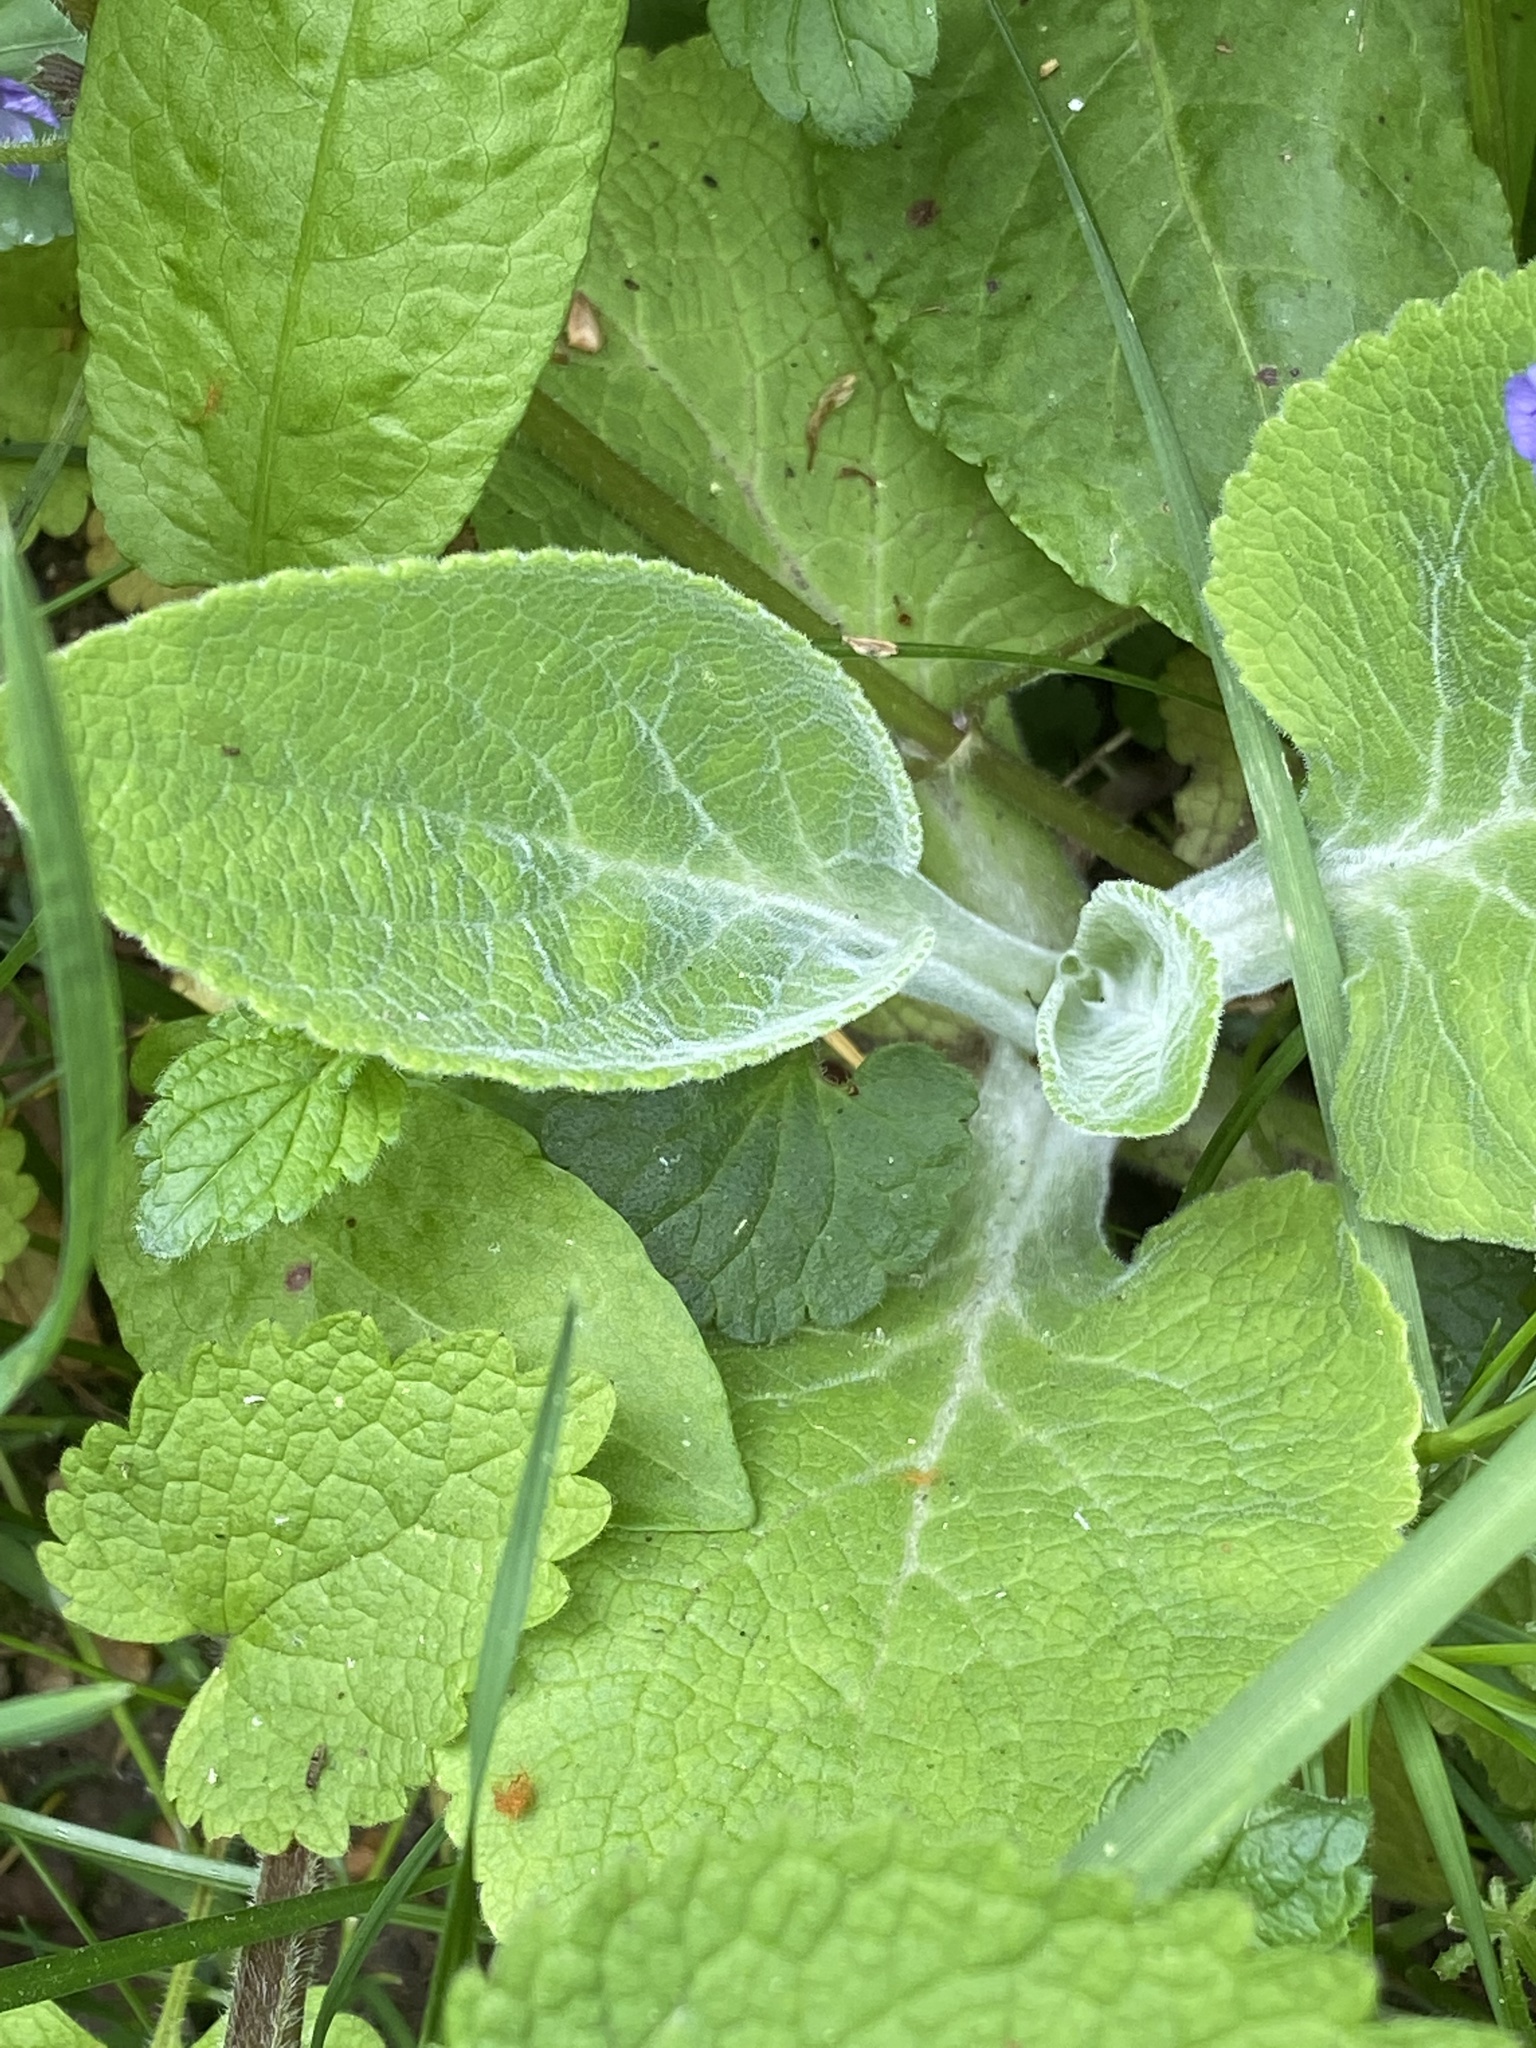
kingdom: Plantae
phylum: Tracheophyta
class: Magnoliopsida
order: Lamiales
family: Plantaginaceae
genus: Digitalis
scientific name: Digitalis purpurea
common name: Foxglove
